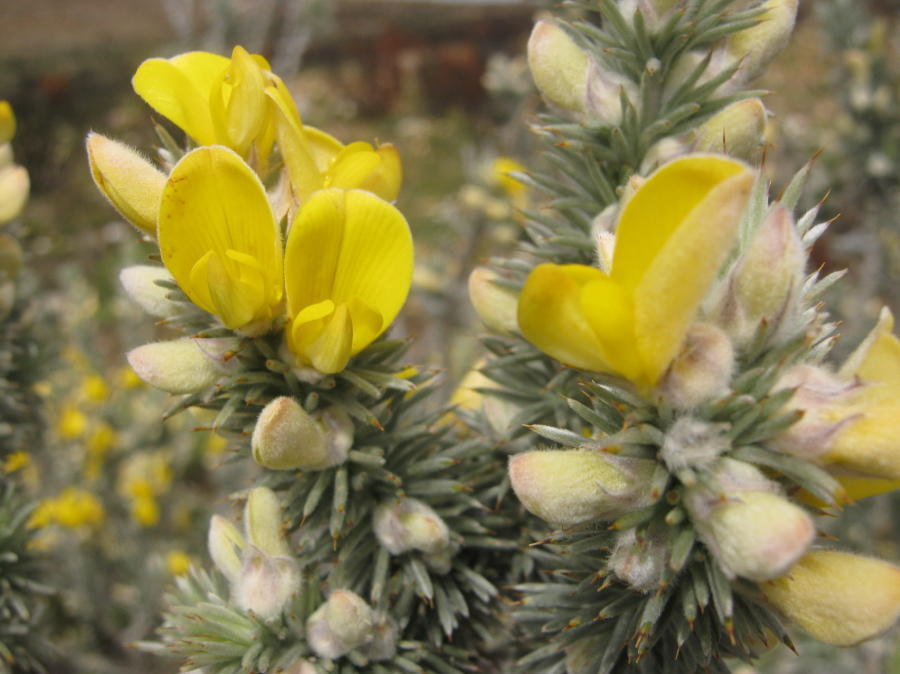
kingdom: Plantae
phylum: Tracheophyta
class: Magnoliopsida
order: Fabales
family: Fabaceae
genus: Aspalathus
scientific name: Aspalathus hystrix
